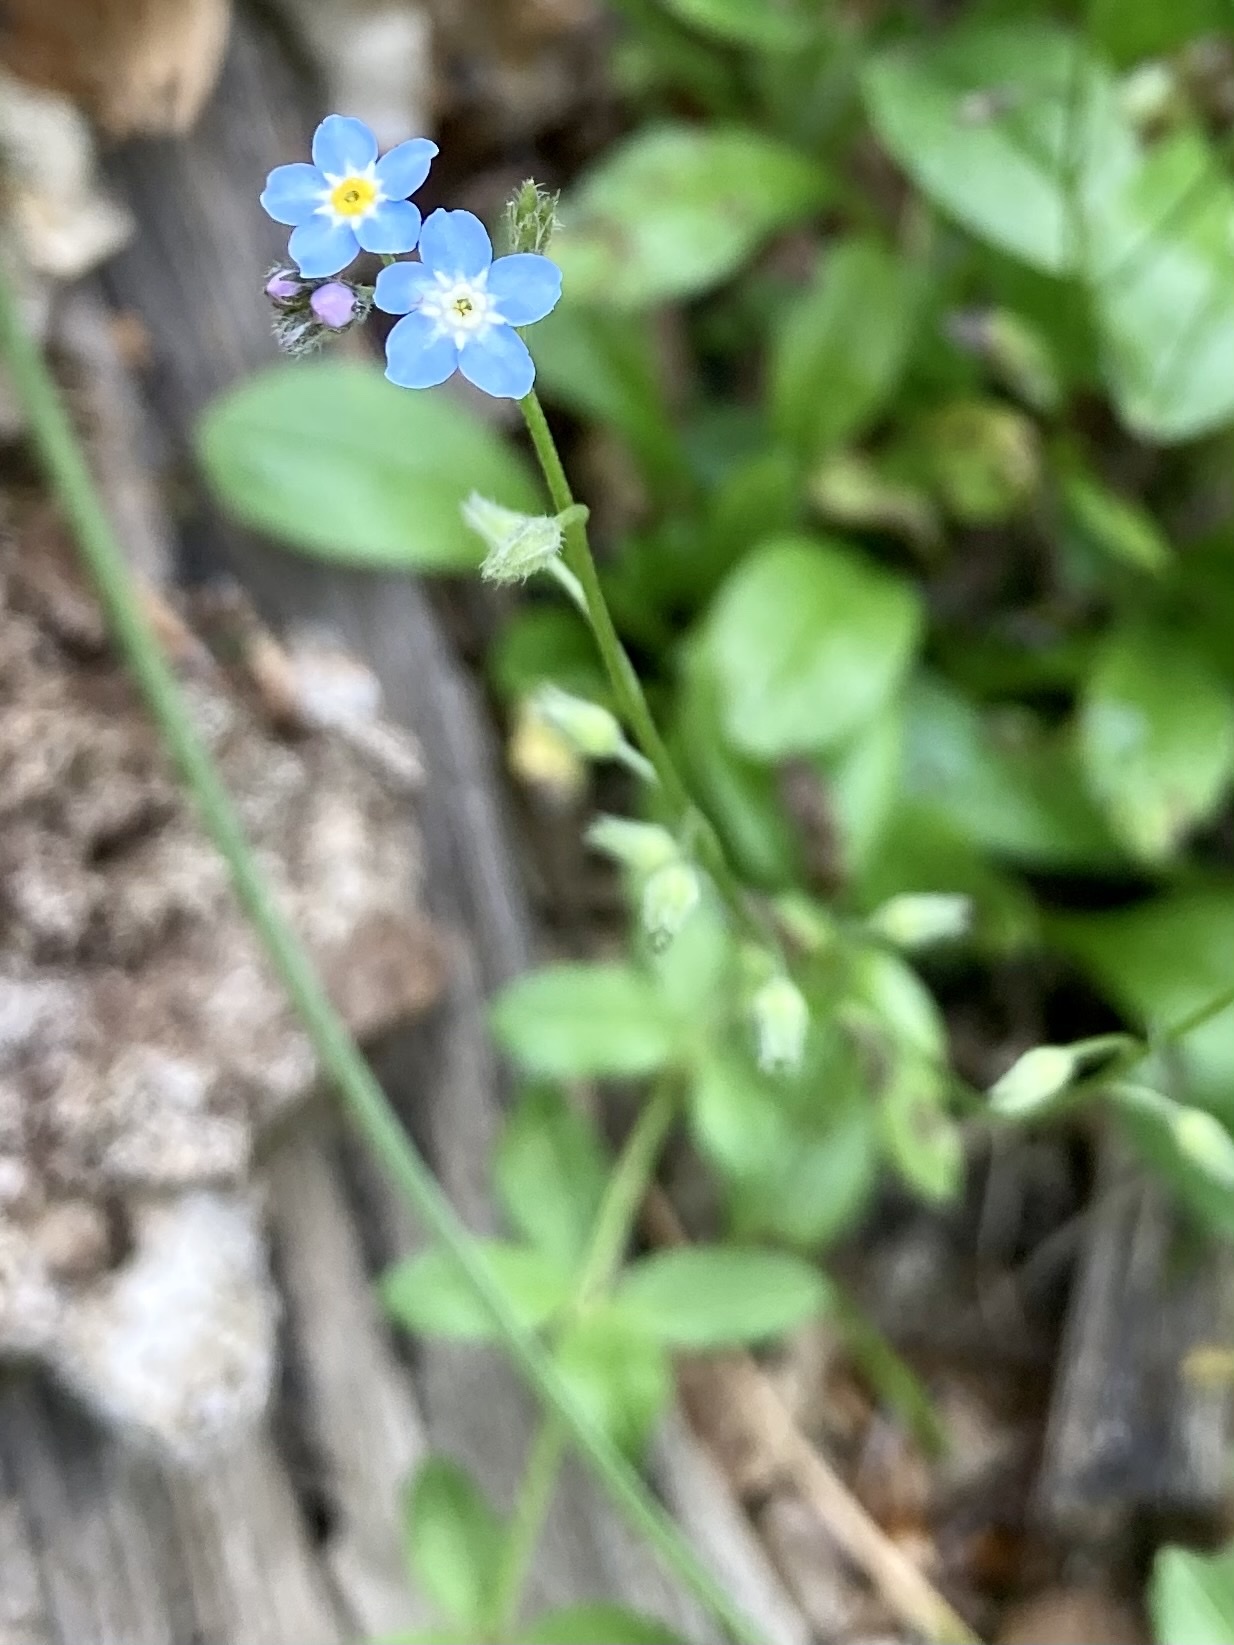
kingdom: Plantae
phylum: Tracheophyta
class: Magnoliopsida
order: Boraginales
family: Boraginaceae
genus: Myosotis
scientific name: Myosotis
